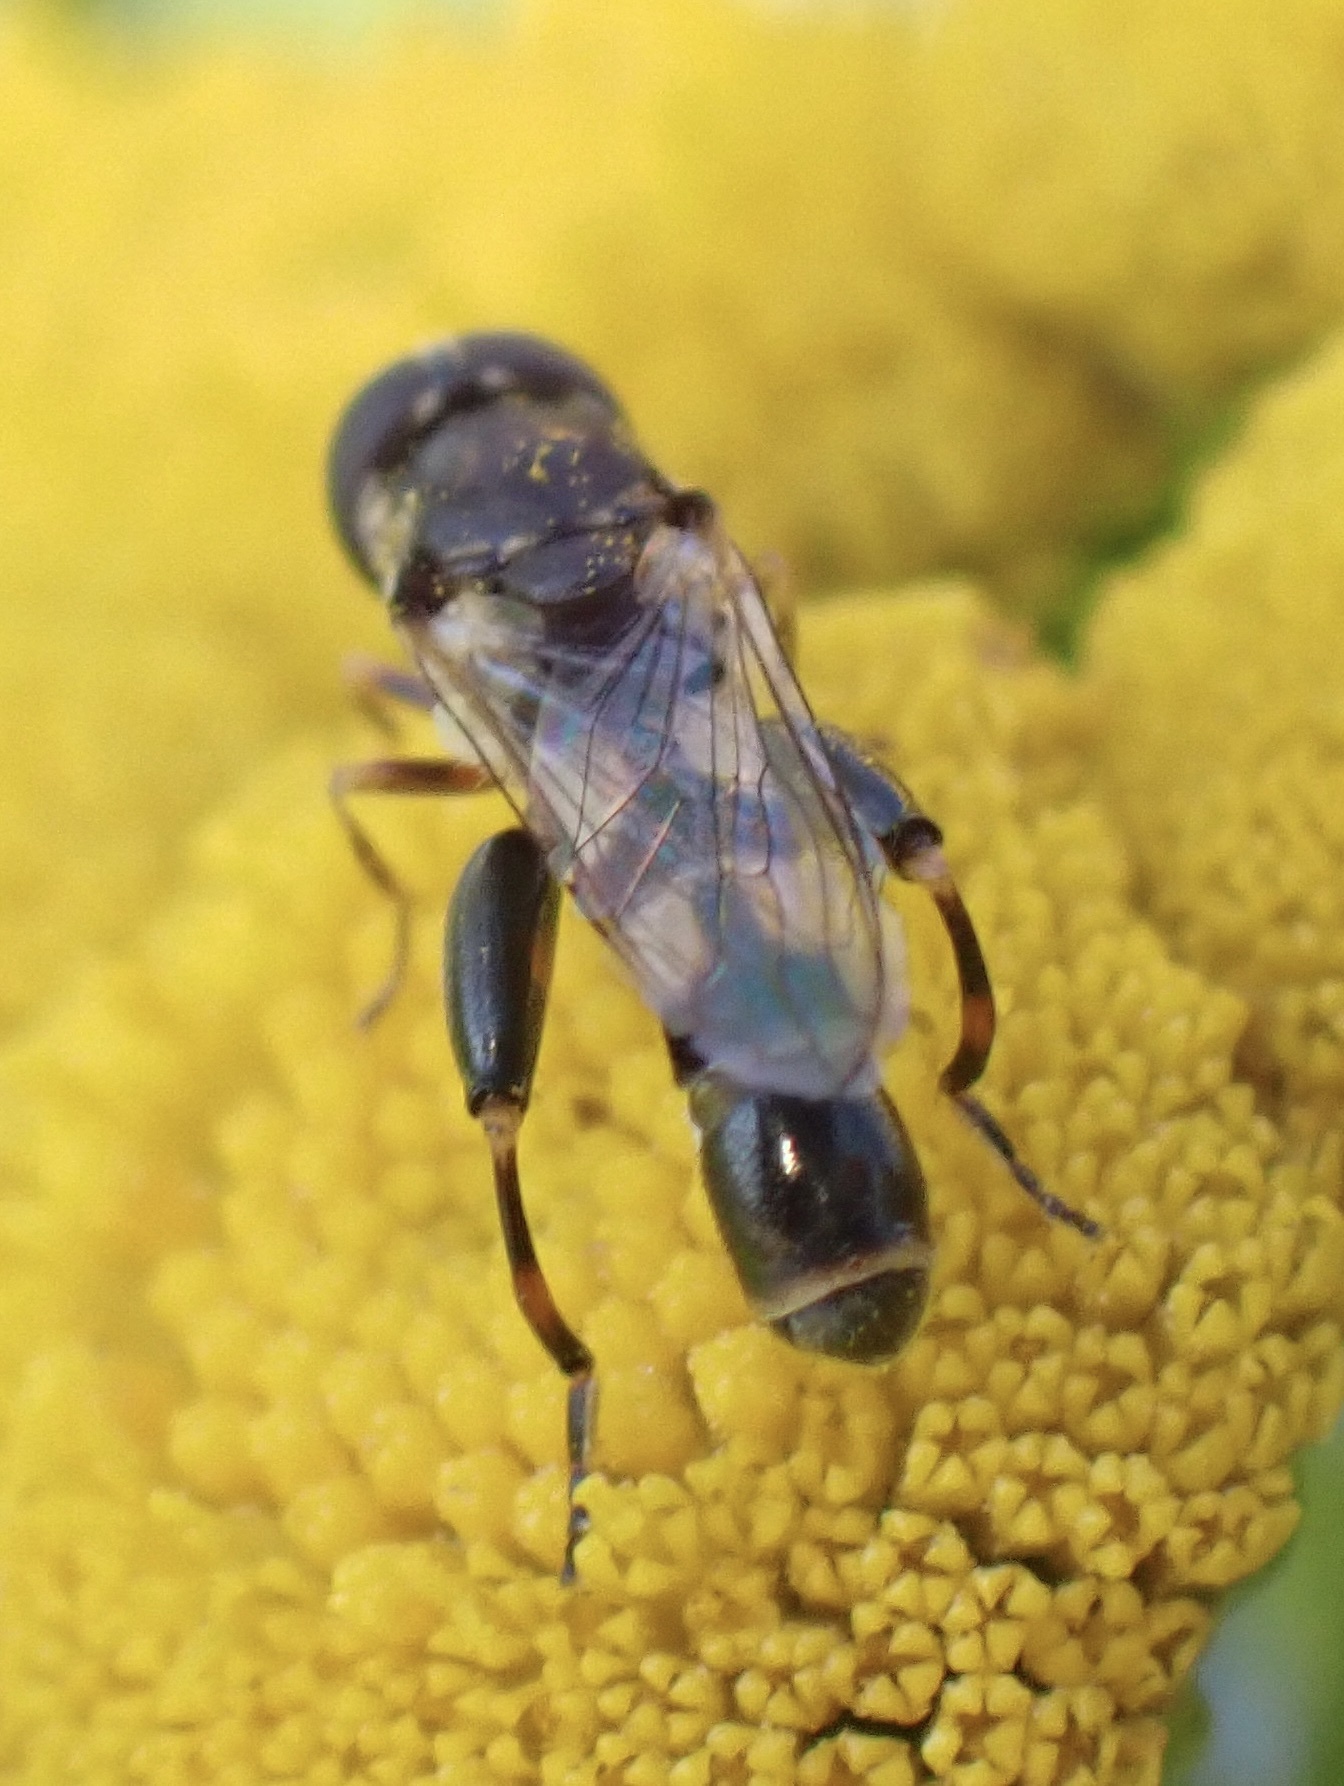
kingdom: Animalia
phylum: Arthropoda
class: Insecta
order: Diptera
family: Syrphidae
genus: Syritta
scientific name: Syritta pipiens
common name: Hover fly
